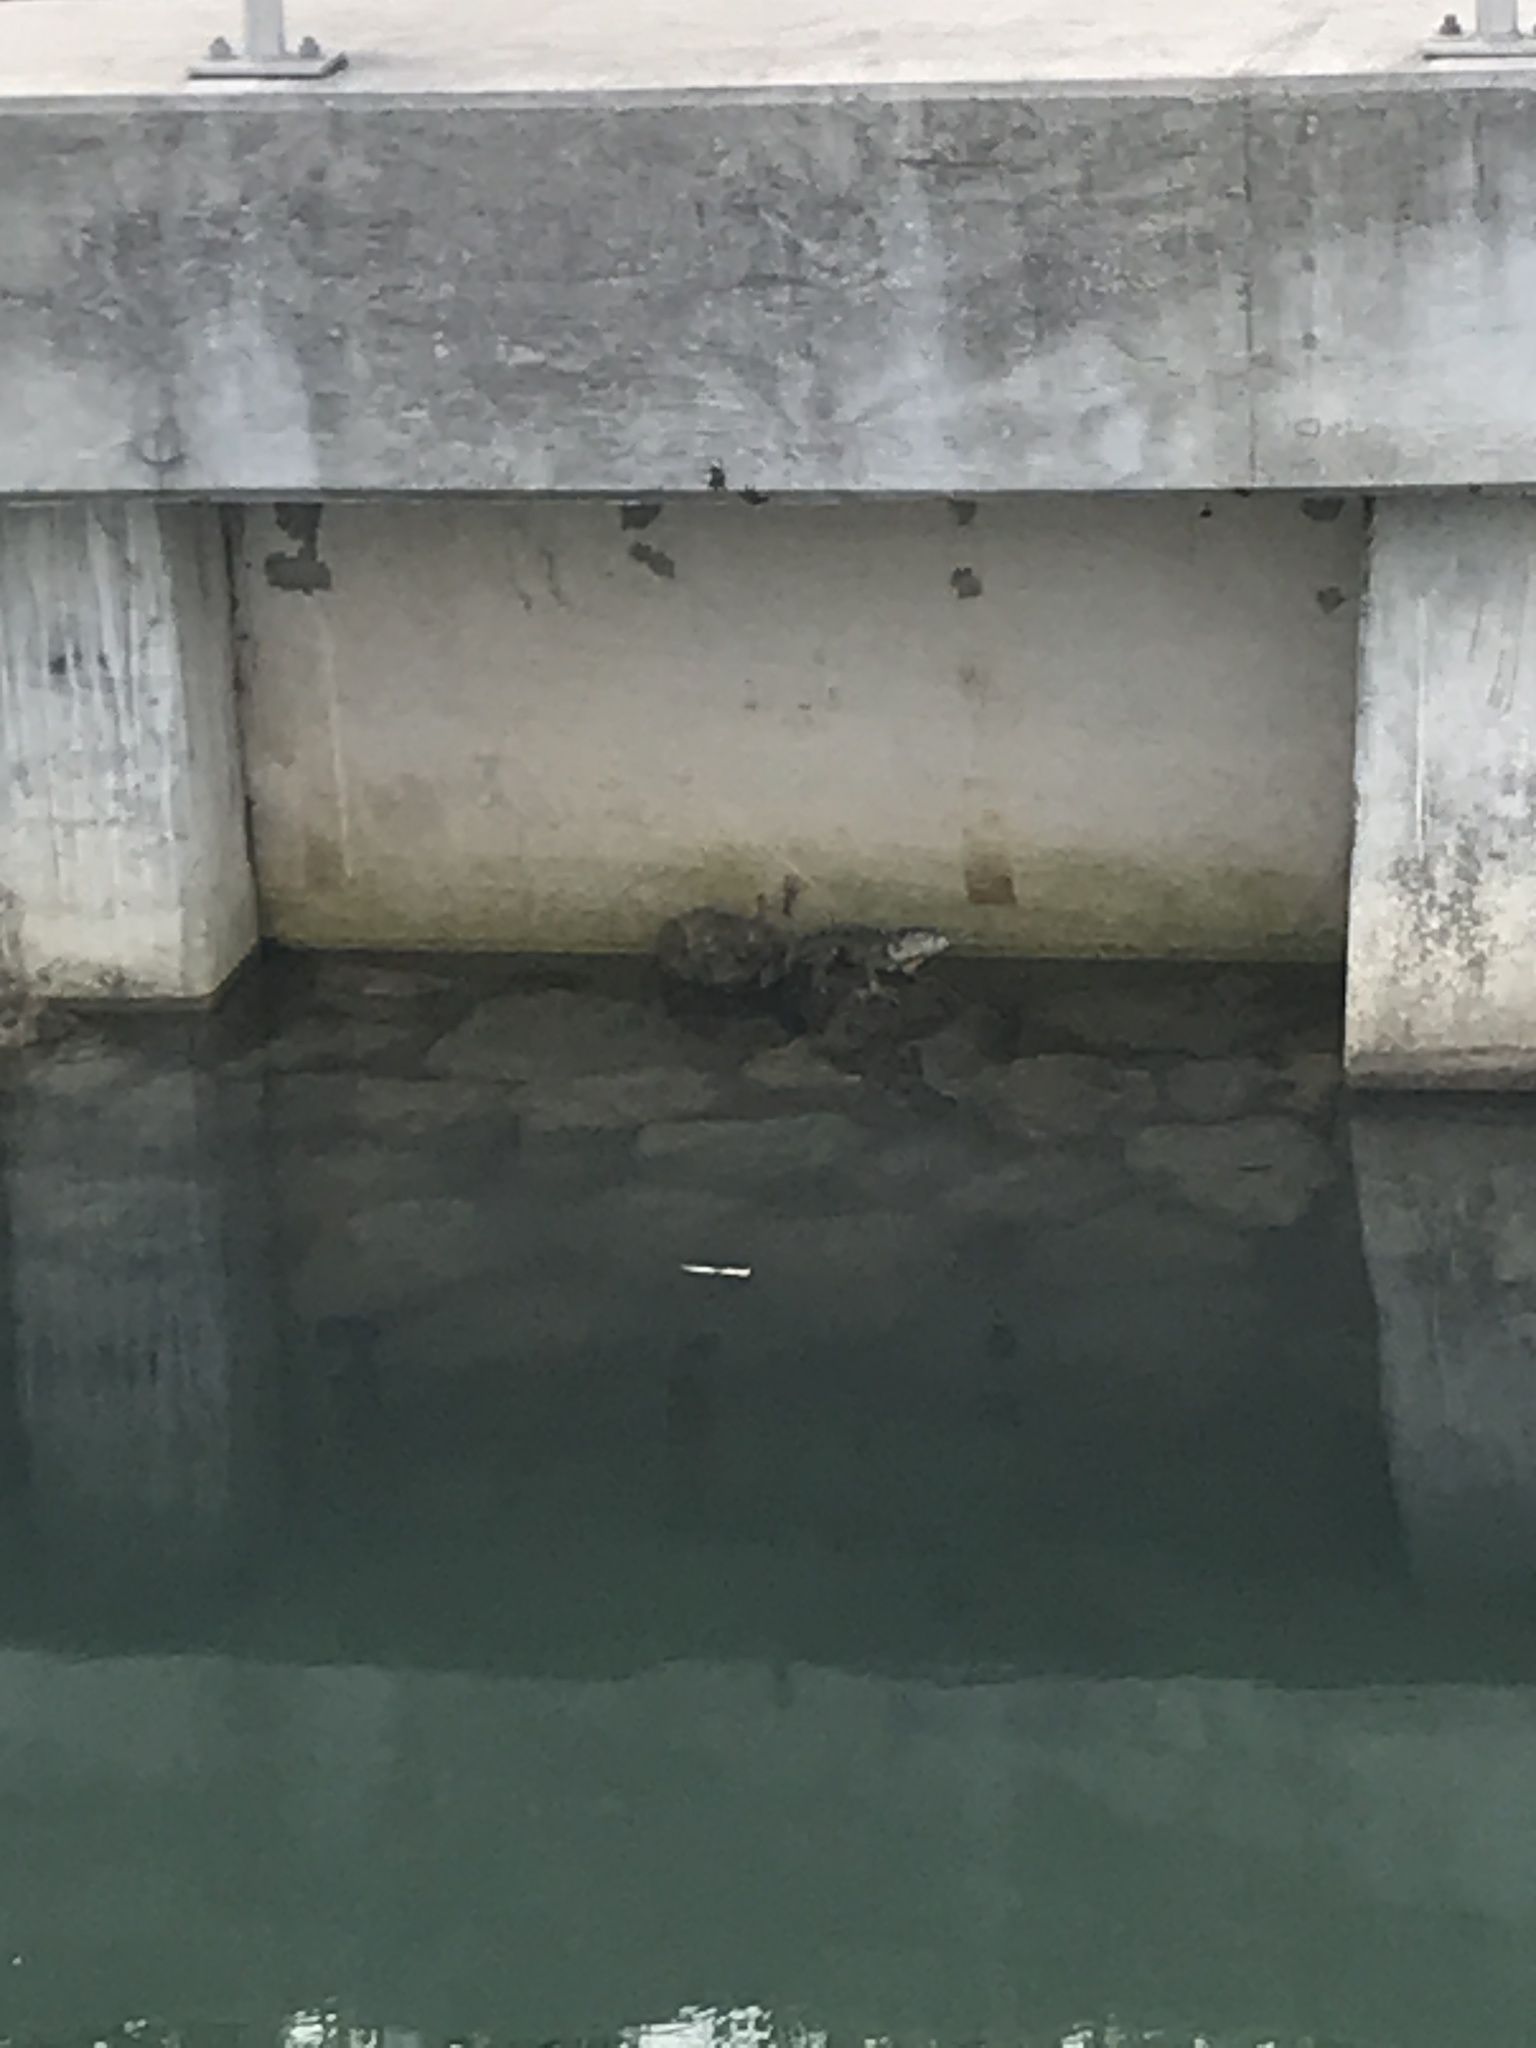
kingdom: Animalia
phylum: Chordata
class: Squamata
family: Iguanidae
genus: Iguana
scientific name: Iguana iguana
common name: Green iguana
